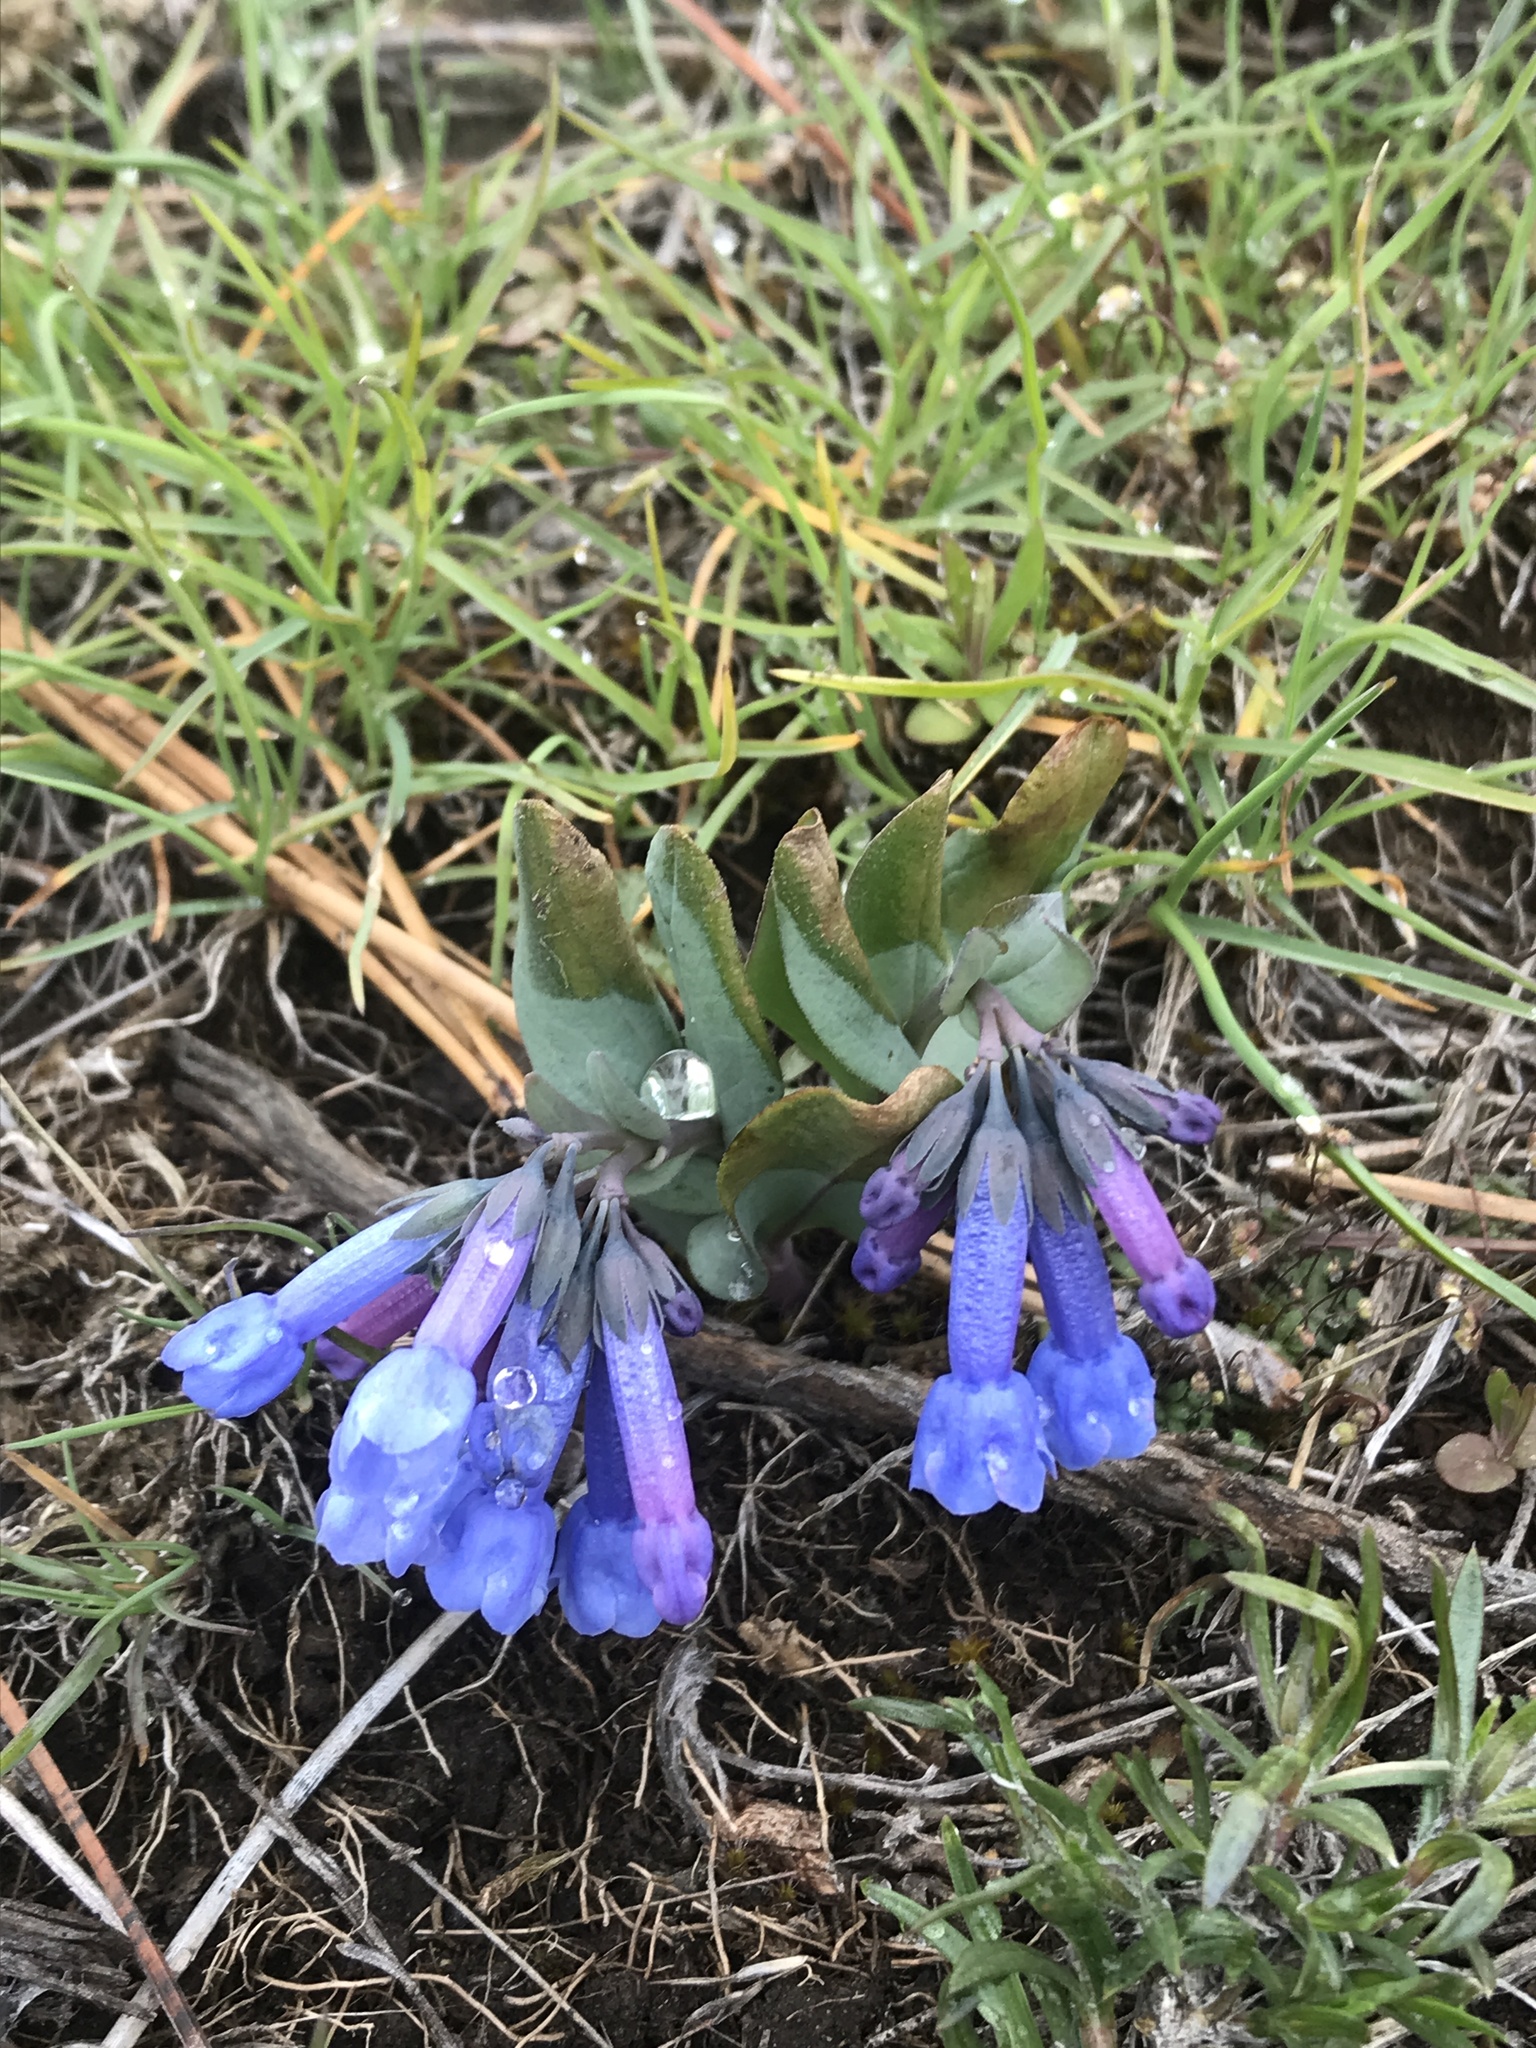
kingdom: Plantae
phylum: Tracheophyta
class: Magnoliopsida
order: Boraginales
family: Boraginaceae
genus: Mertensia
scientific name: Mertensia longiflora
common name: Large-flowered bluebells
